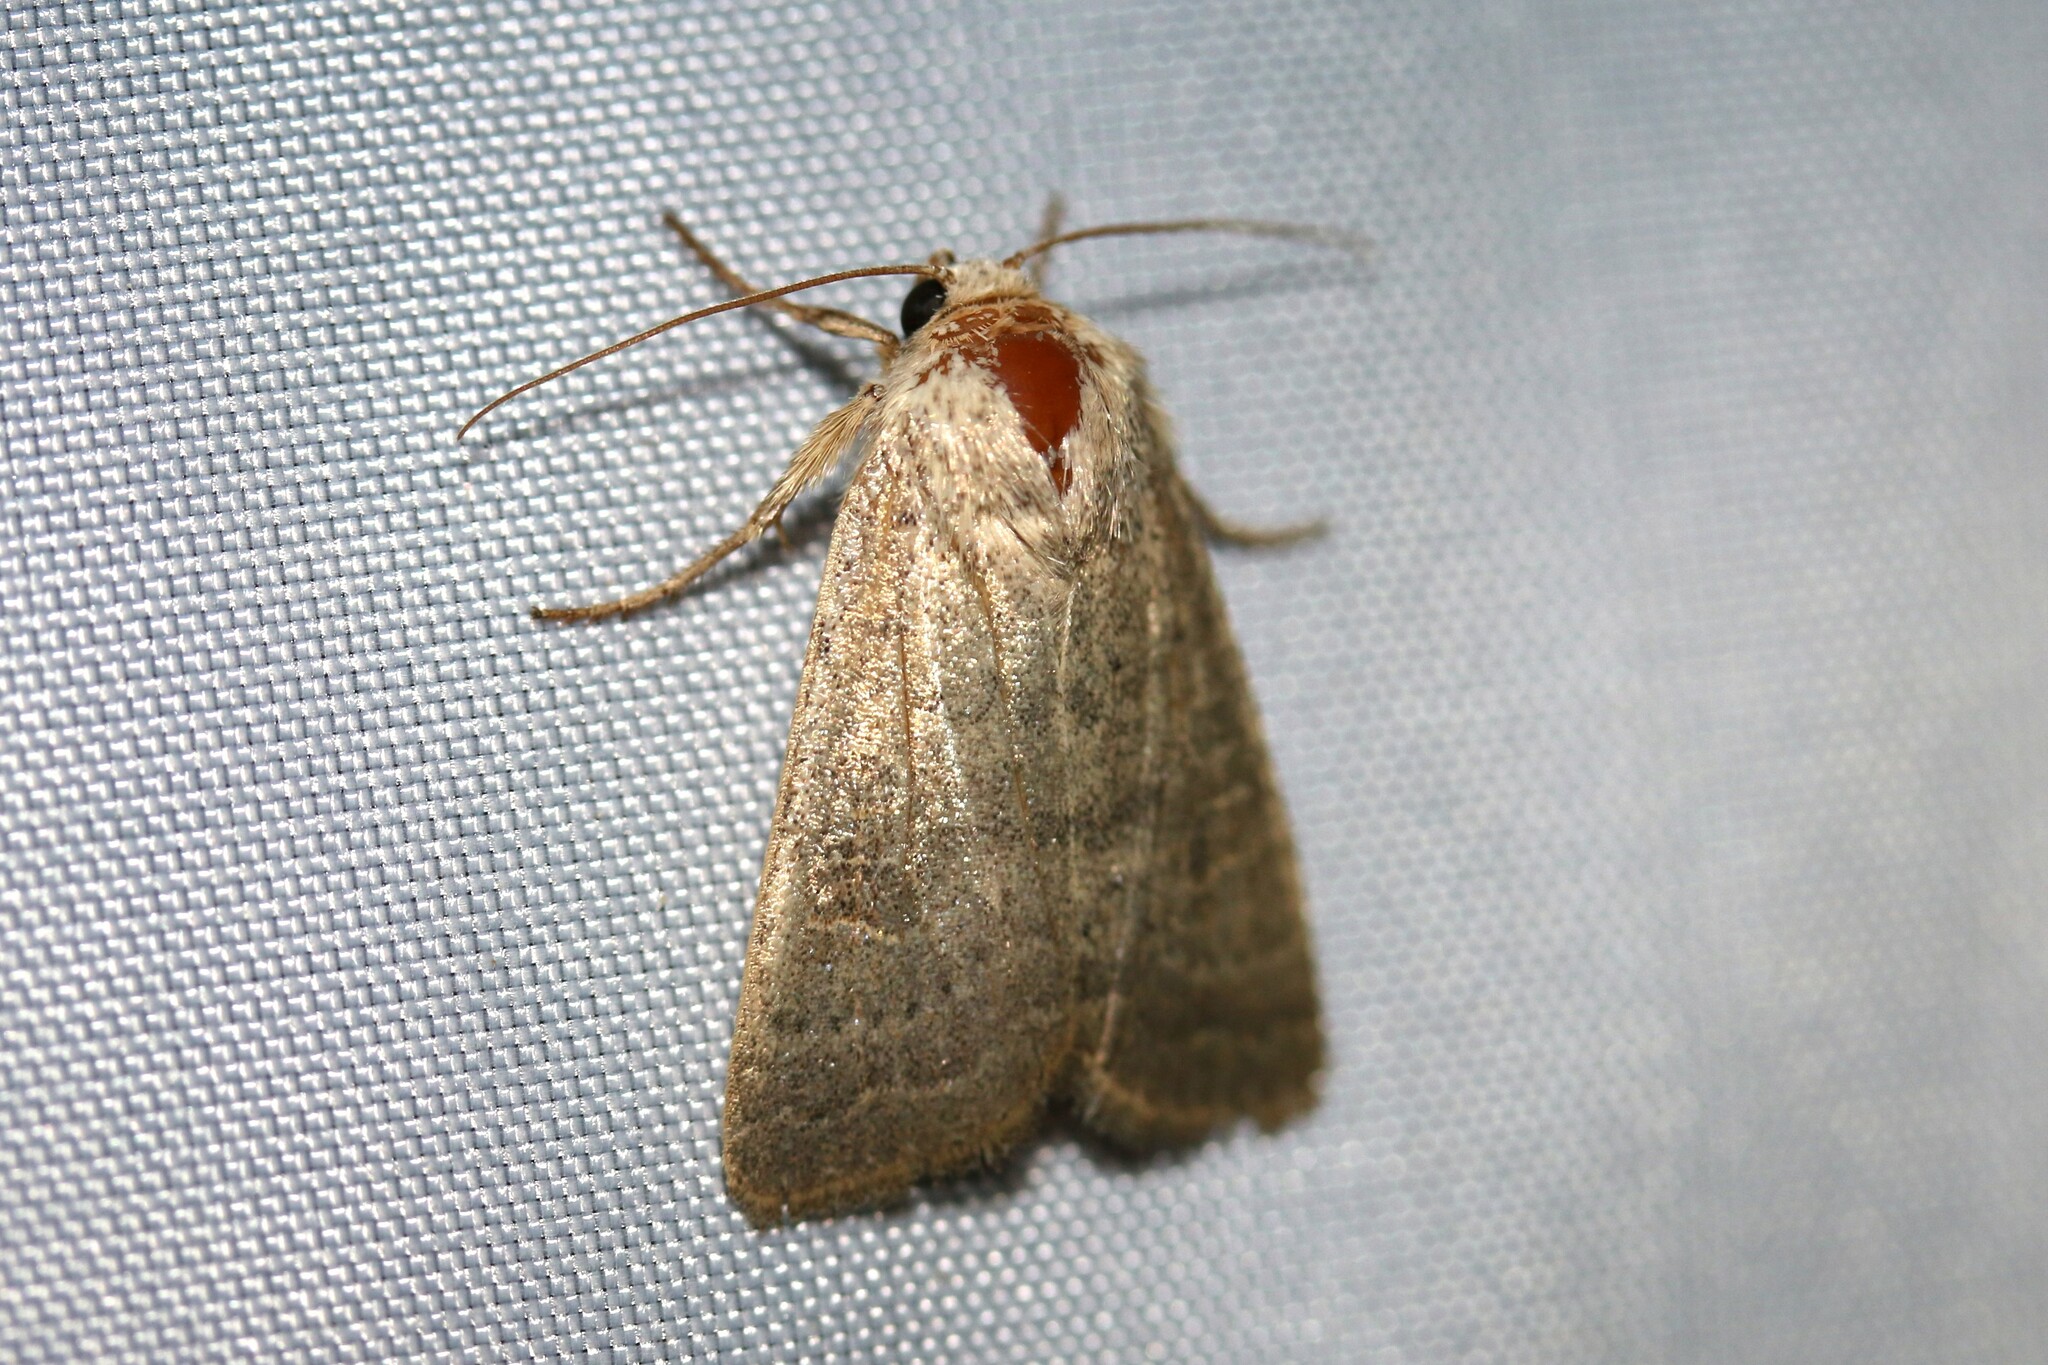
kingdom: Animalia
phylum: Arthropoda
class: Insecta
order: Lepidoptera
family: Noctuidae
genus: Hoplodrina
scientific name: Hoplodrina ambigua
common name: Vine's rustic
